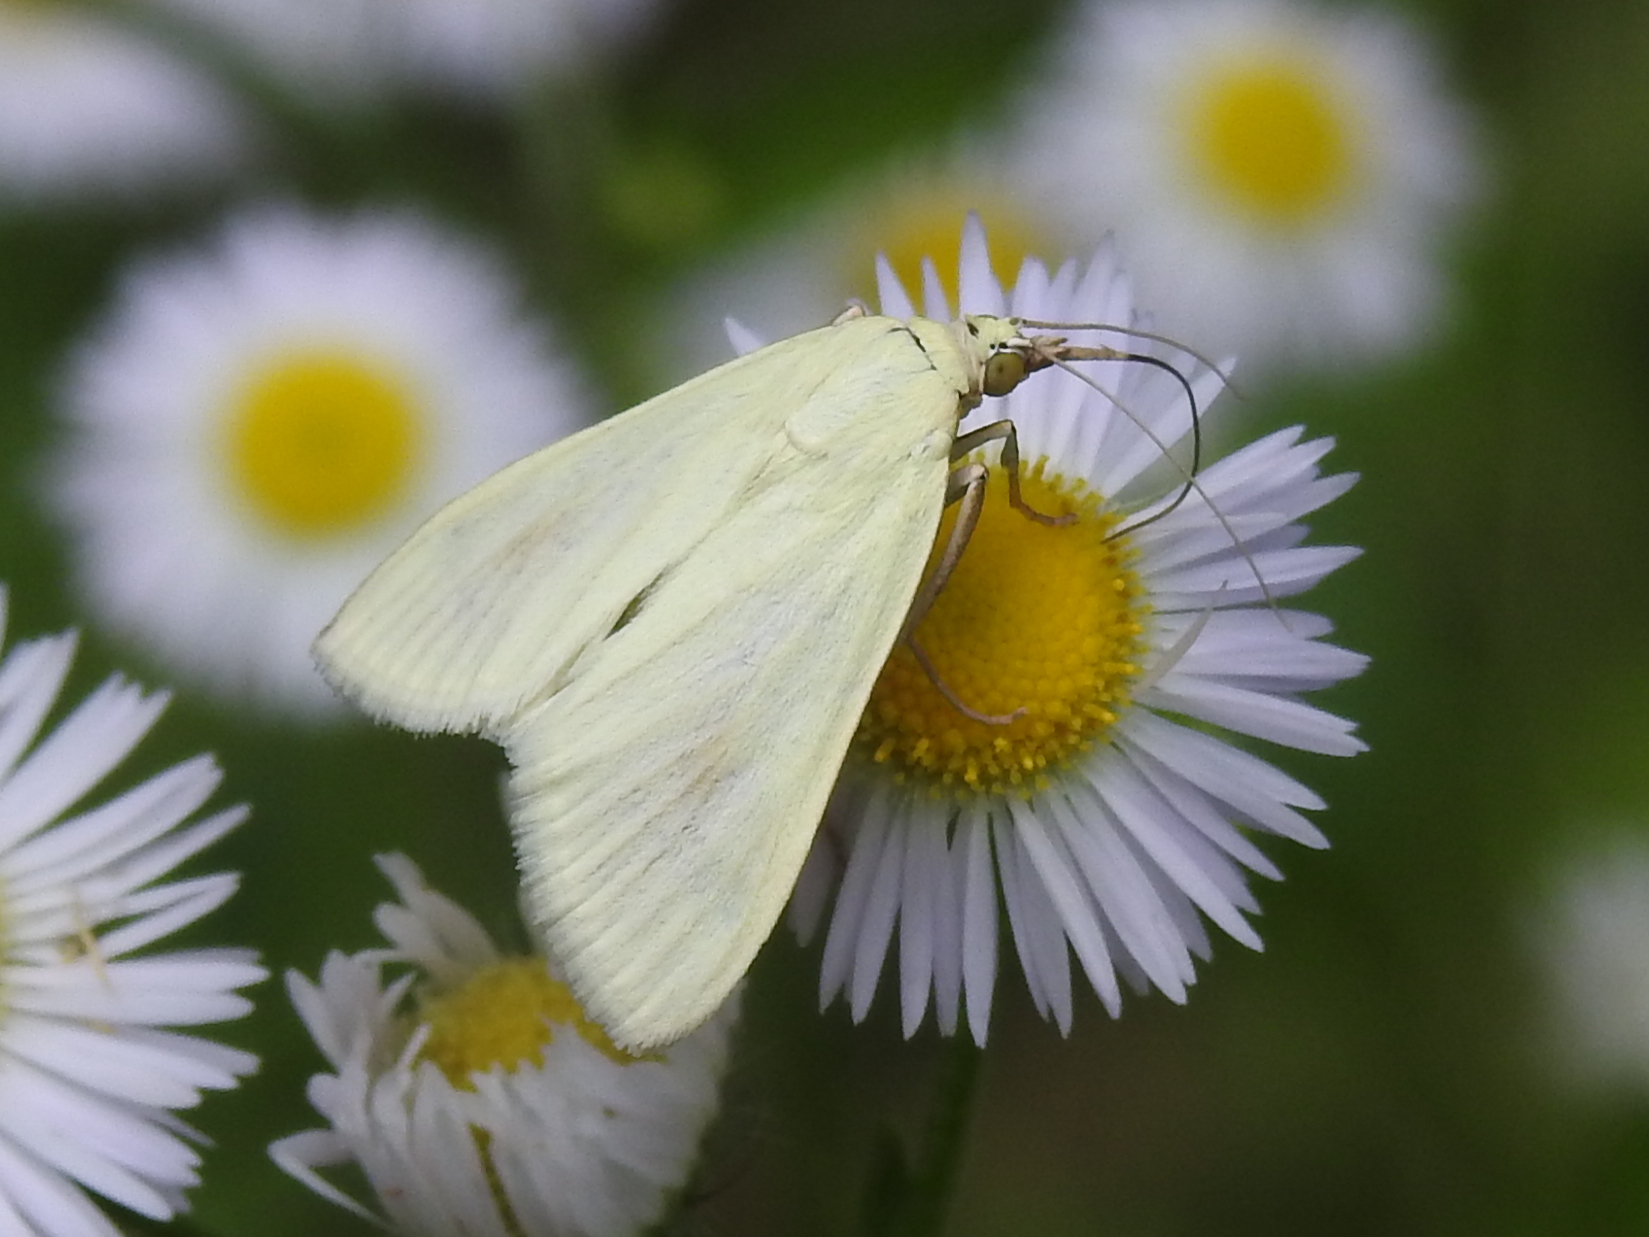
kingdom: Animalia
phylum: Arthropoda
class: Insecta
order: Lepidoptera
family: Crambidae
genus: Sitochroa
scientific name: Sitochroa palealis
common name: Greenish-yellow sitochroa moth
